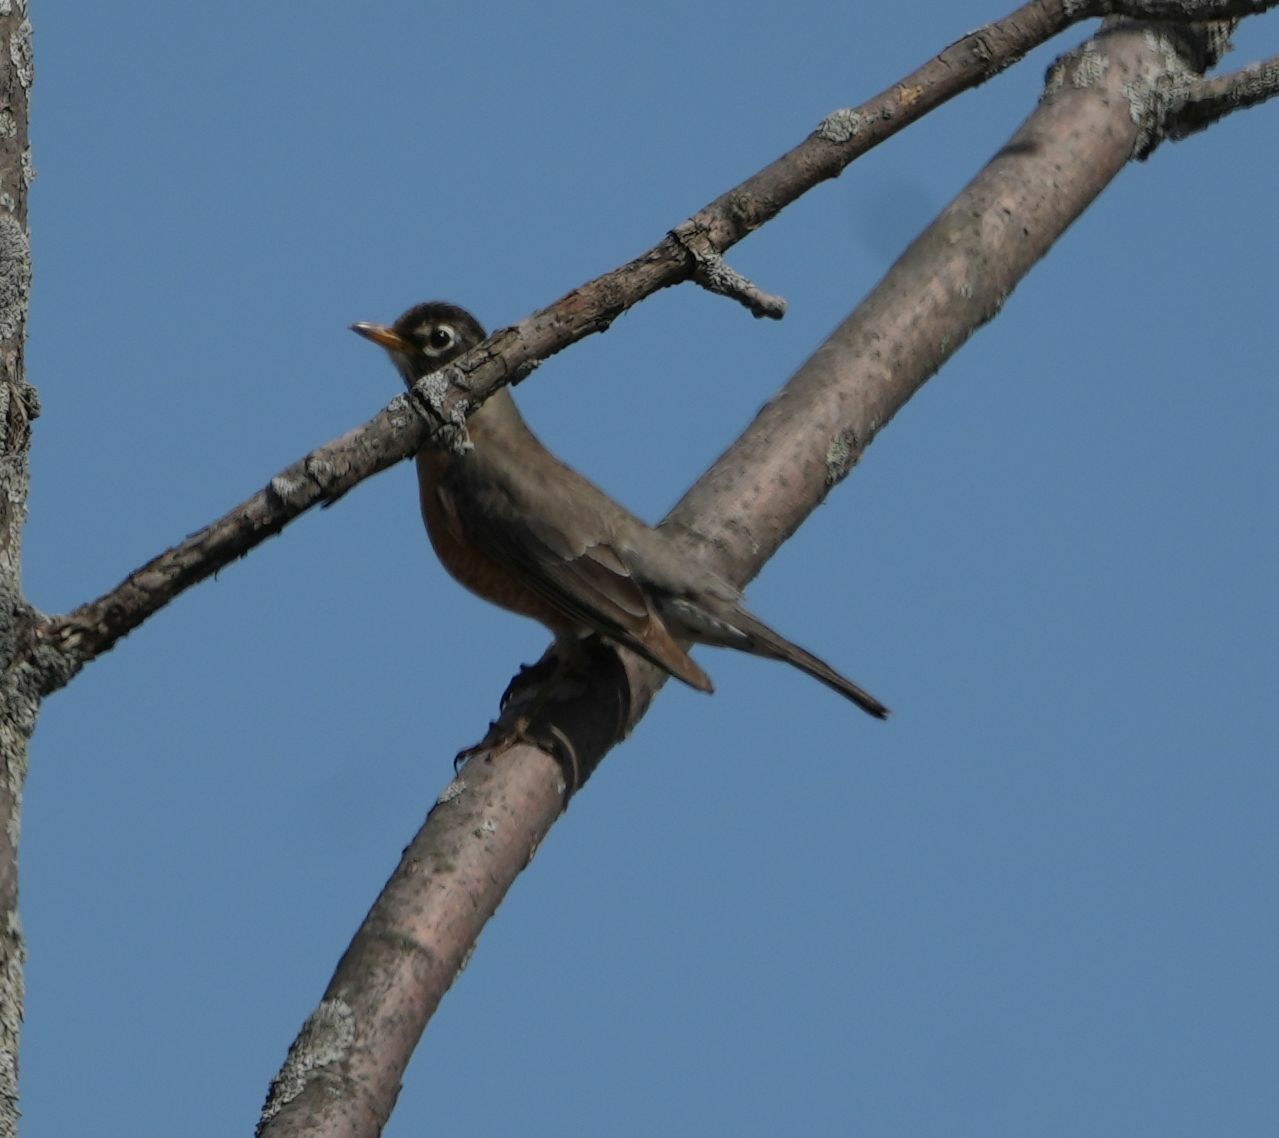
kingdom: Animalia
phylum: Chordata
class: Aves
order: Passeriformes
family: Turdidae
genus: Turdus
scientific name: Turdus migratorius
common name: American robin
